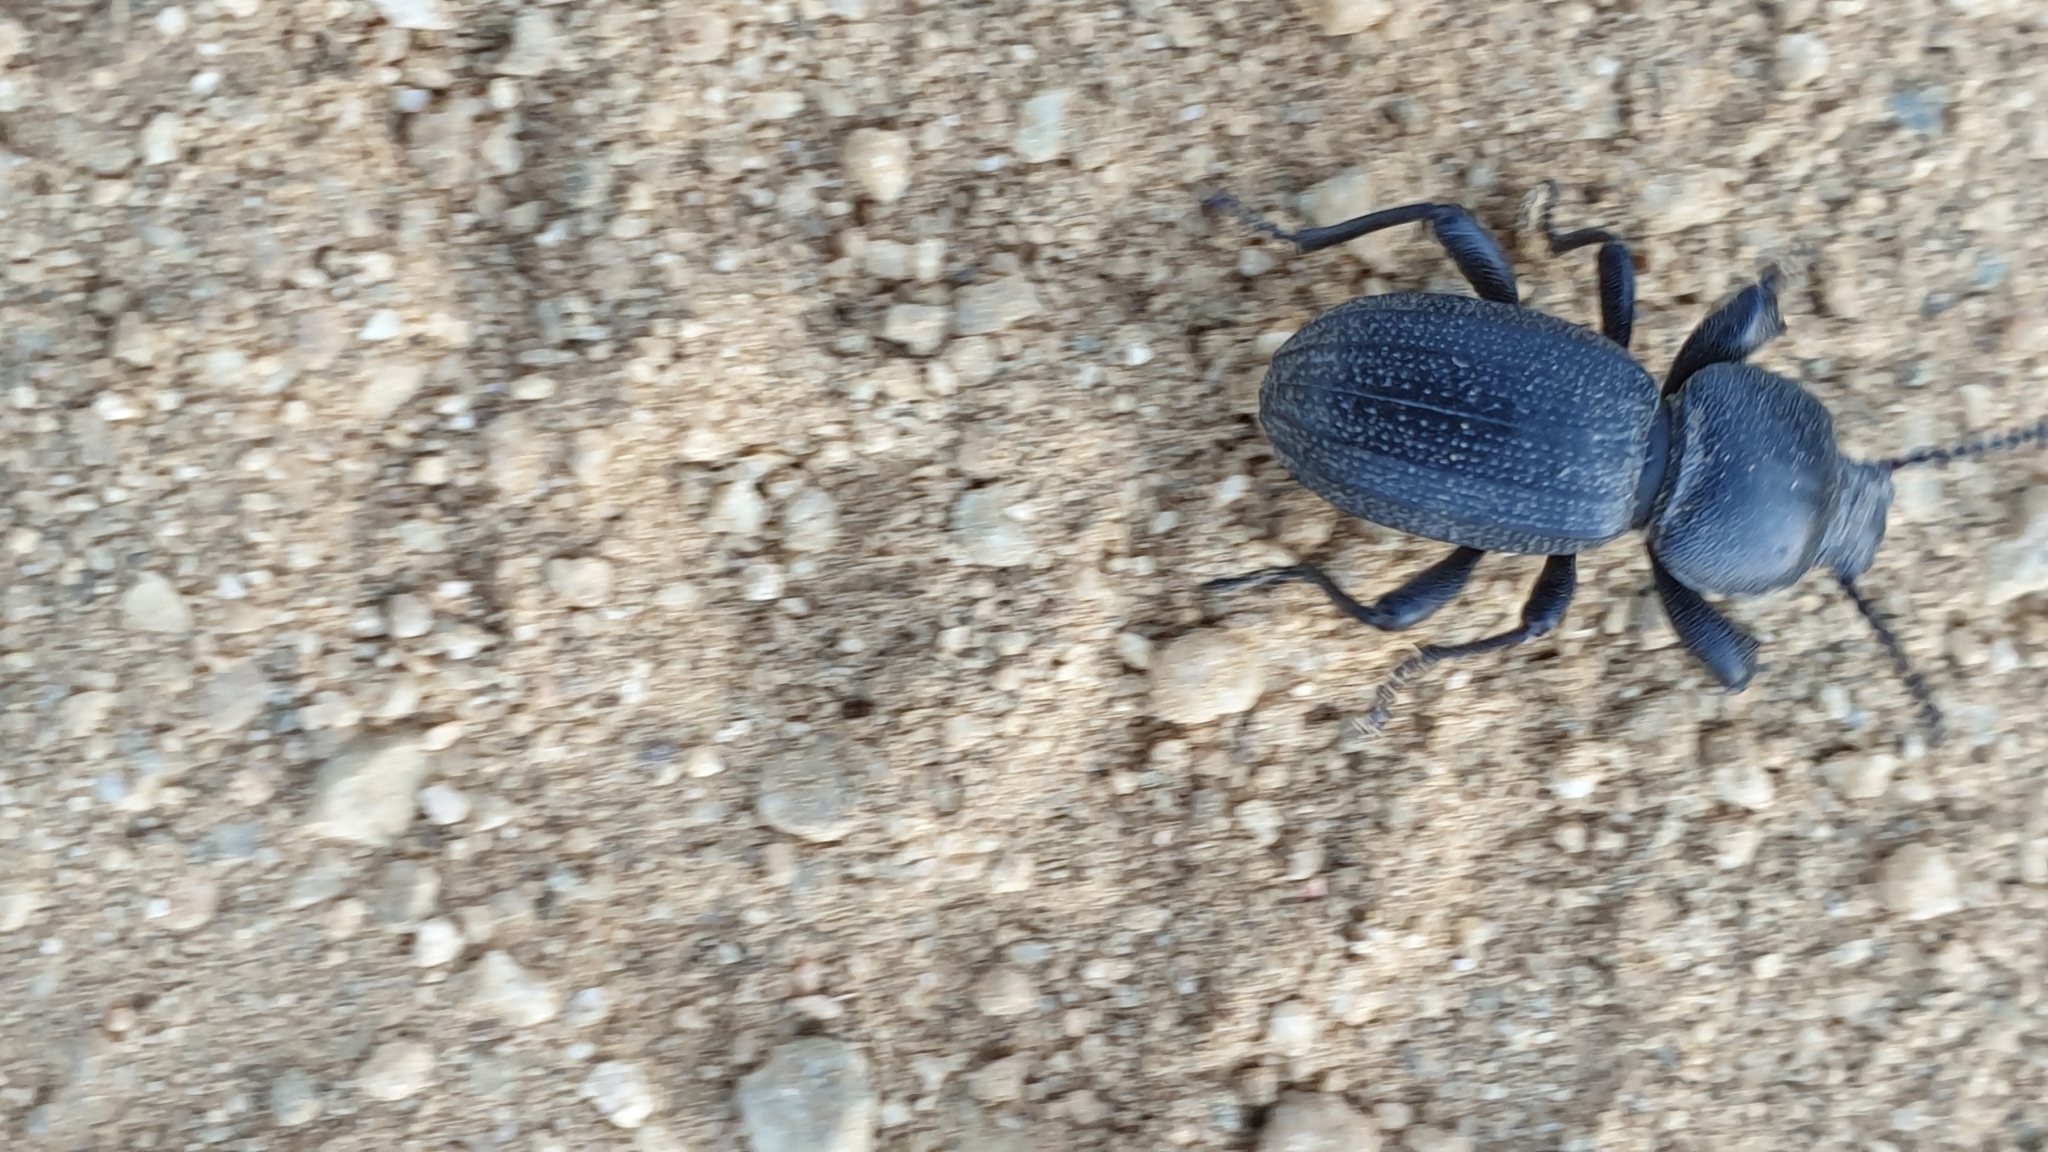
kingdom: Animalia
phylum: Arthropoda
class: Insecta
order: Coleoptera
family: Tenebrionidae
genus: Scaurus
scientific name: Scaurus uncinus
